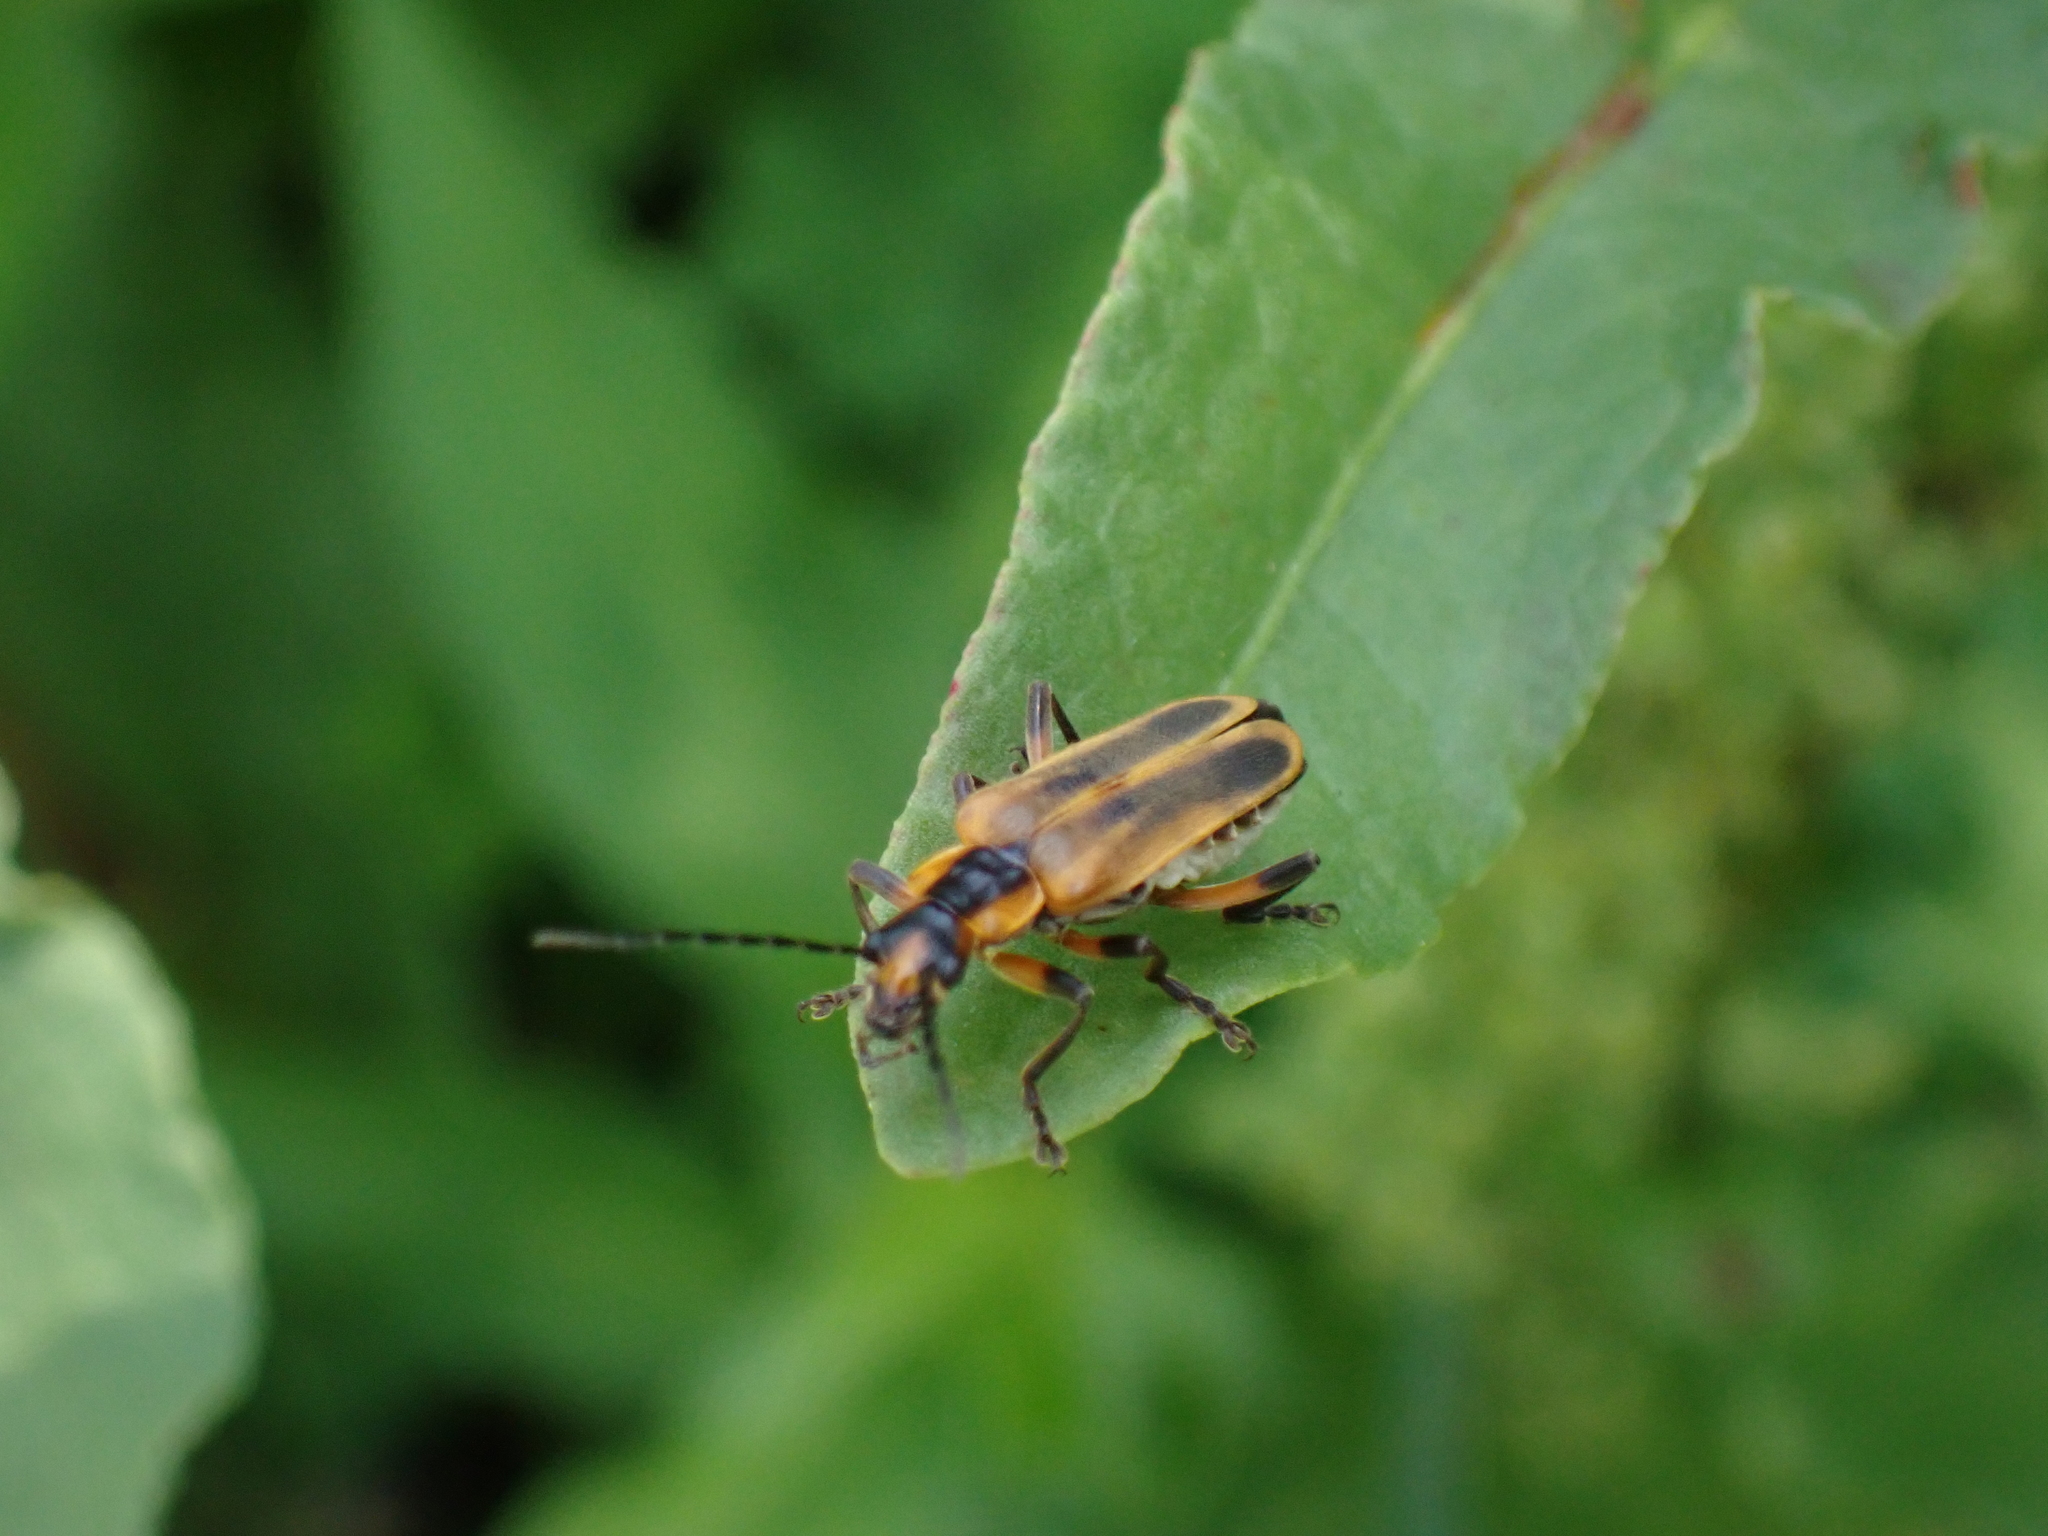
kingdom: Animalia
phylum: Arthropoda
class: Insecta
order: Coleoptera
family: Cantharidae
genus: Chauliognathus
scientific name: Chauliognathus marginatus
